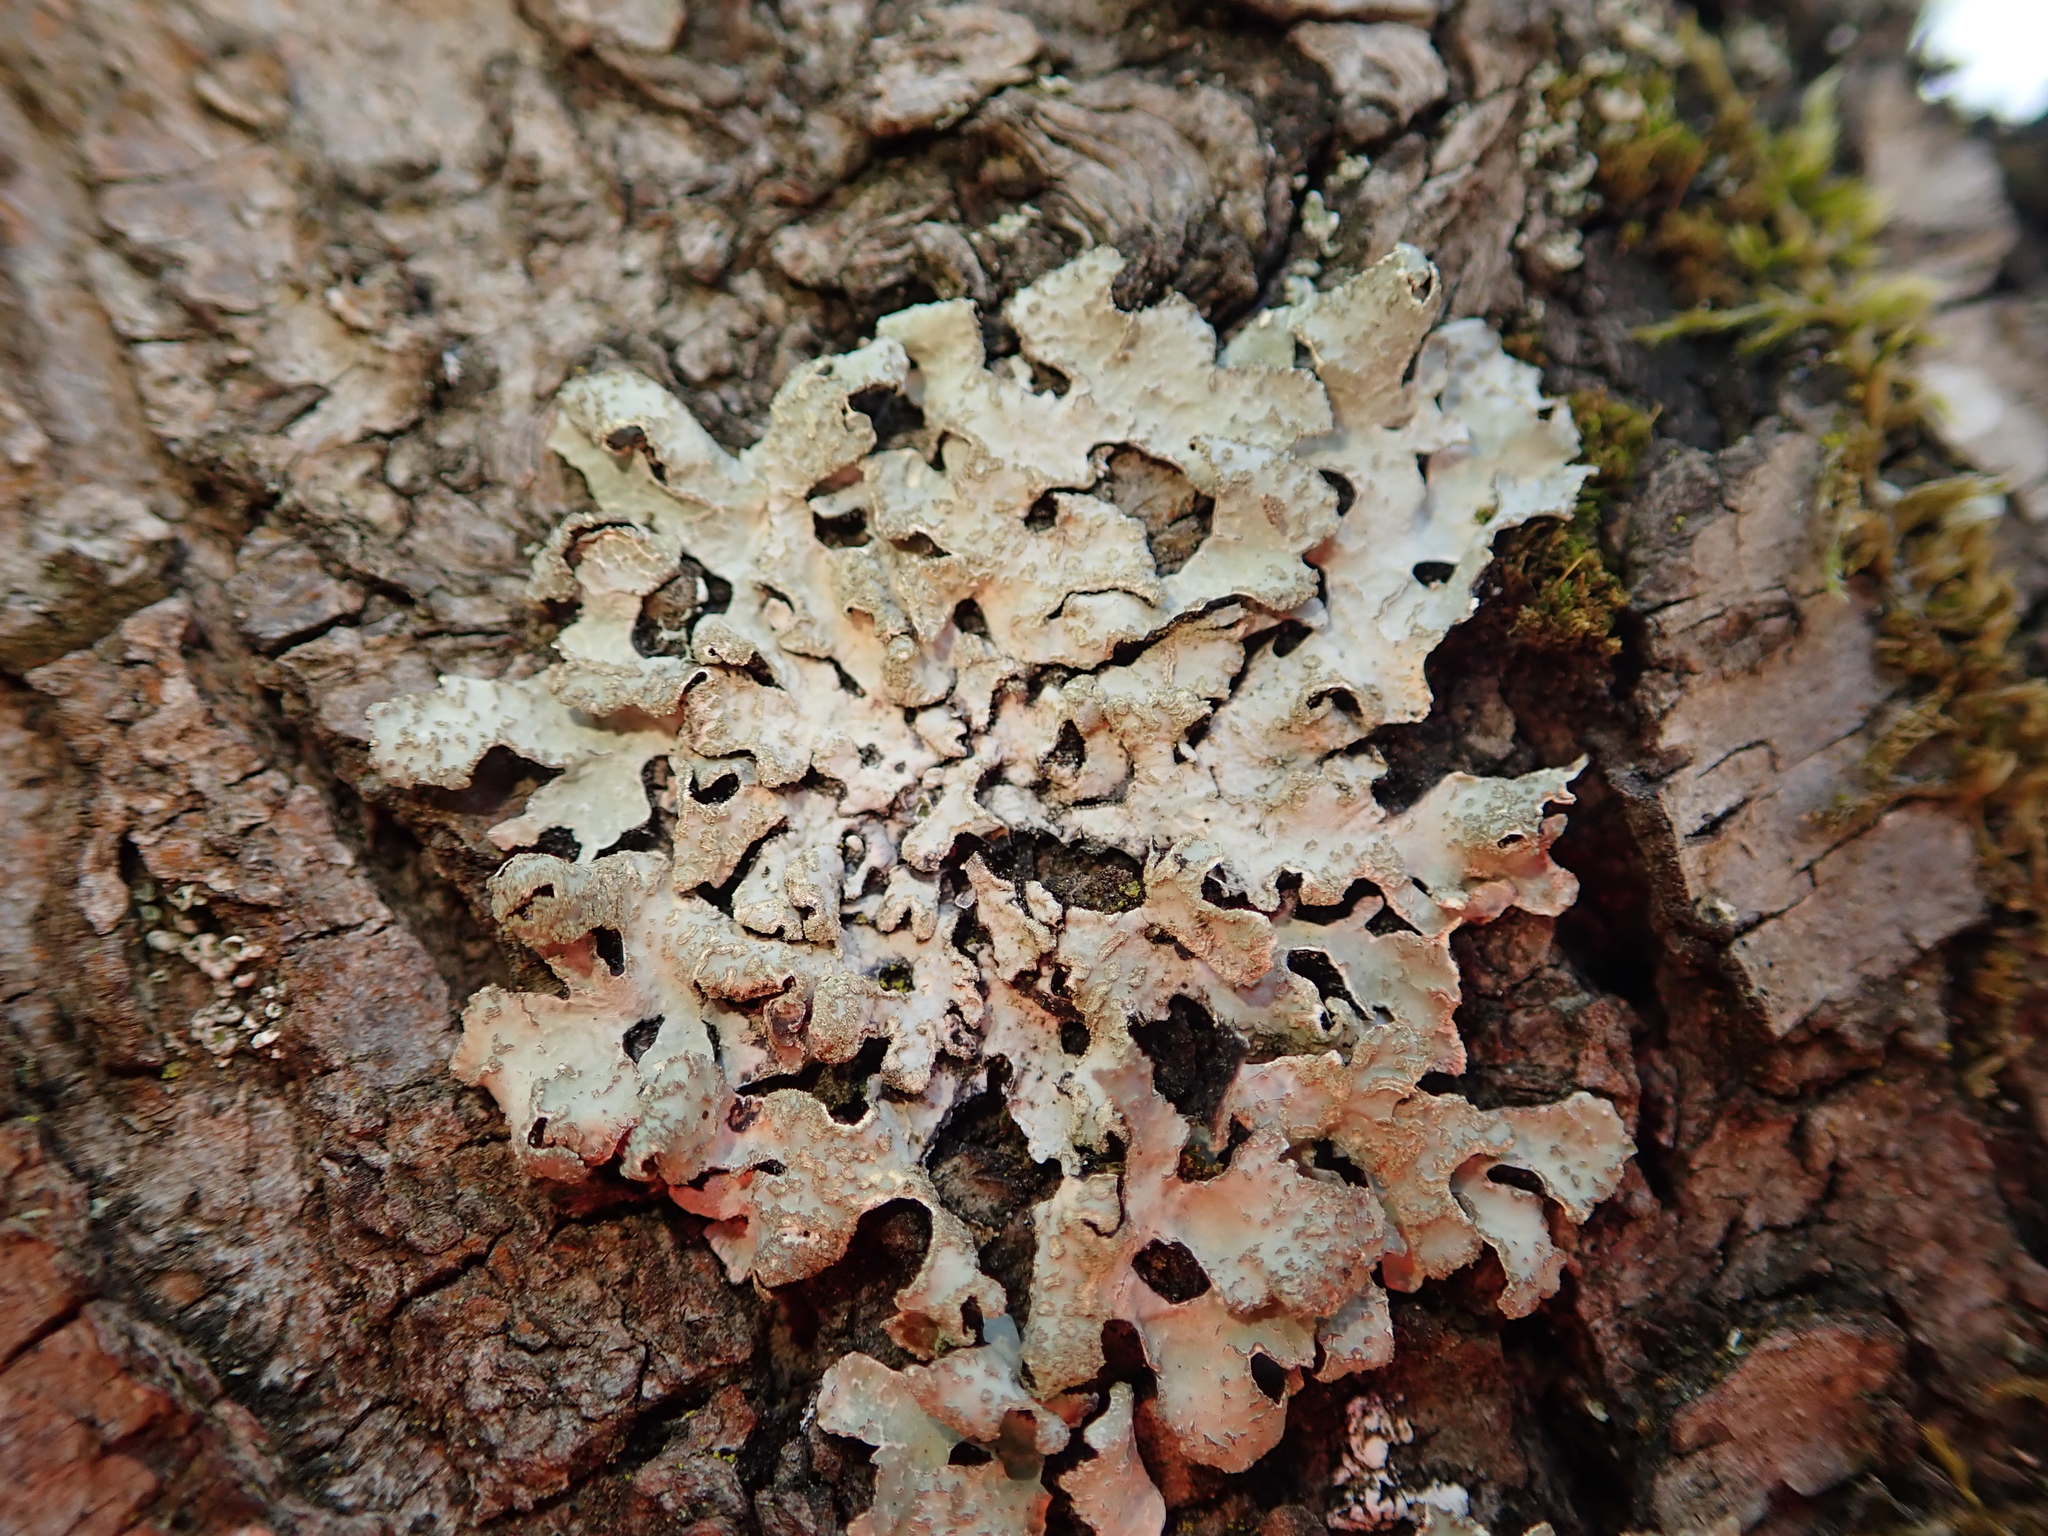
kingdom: Fungi
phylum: Ascomycota
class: Lecanoromycetes
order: Lecanorales
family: Parmeliaceae
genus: Parmelia
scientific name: Parmelia sulcata
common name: Netted shield lichen
